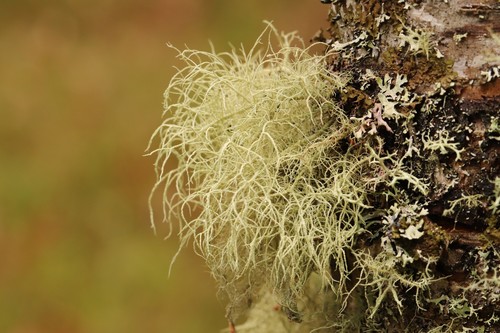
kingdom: Fungi
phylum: Ascomycota
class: Lecanoromycetes
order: Lecanorales
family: Parmeliaceae
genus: Usnea
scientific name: Usnea
